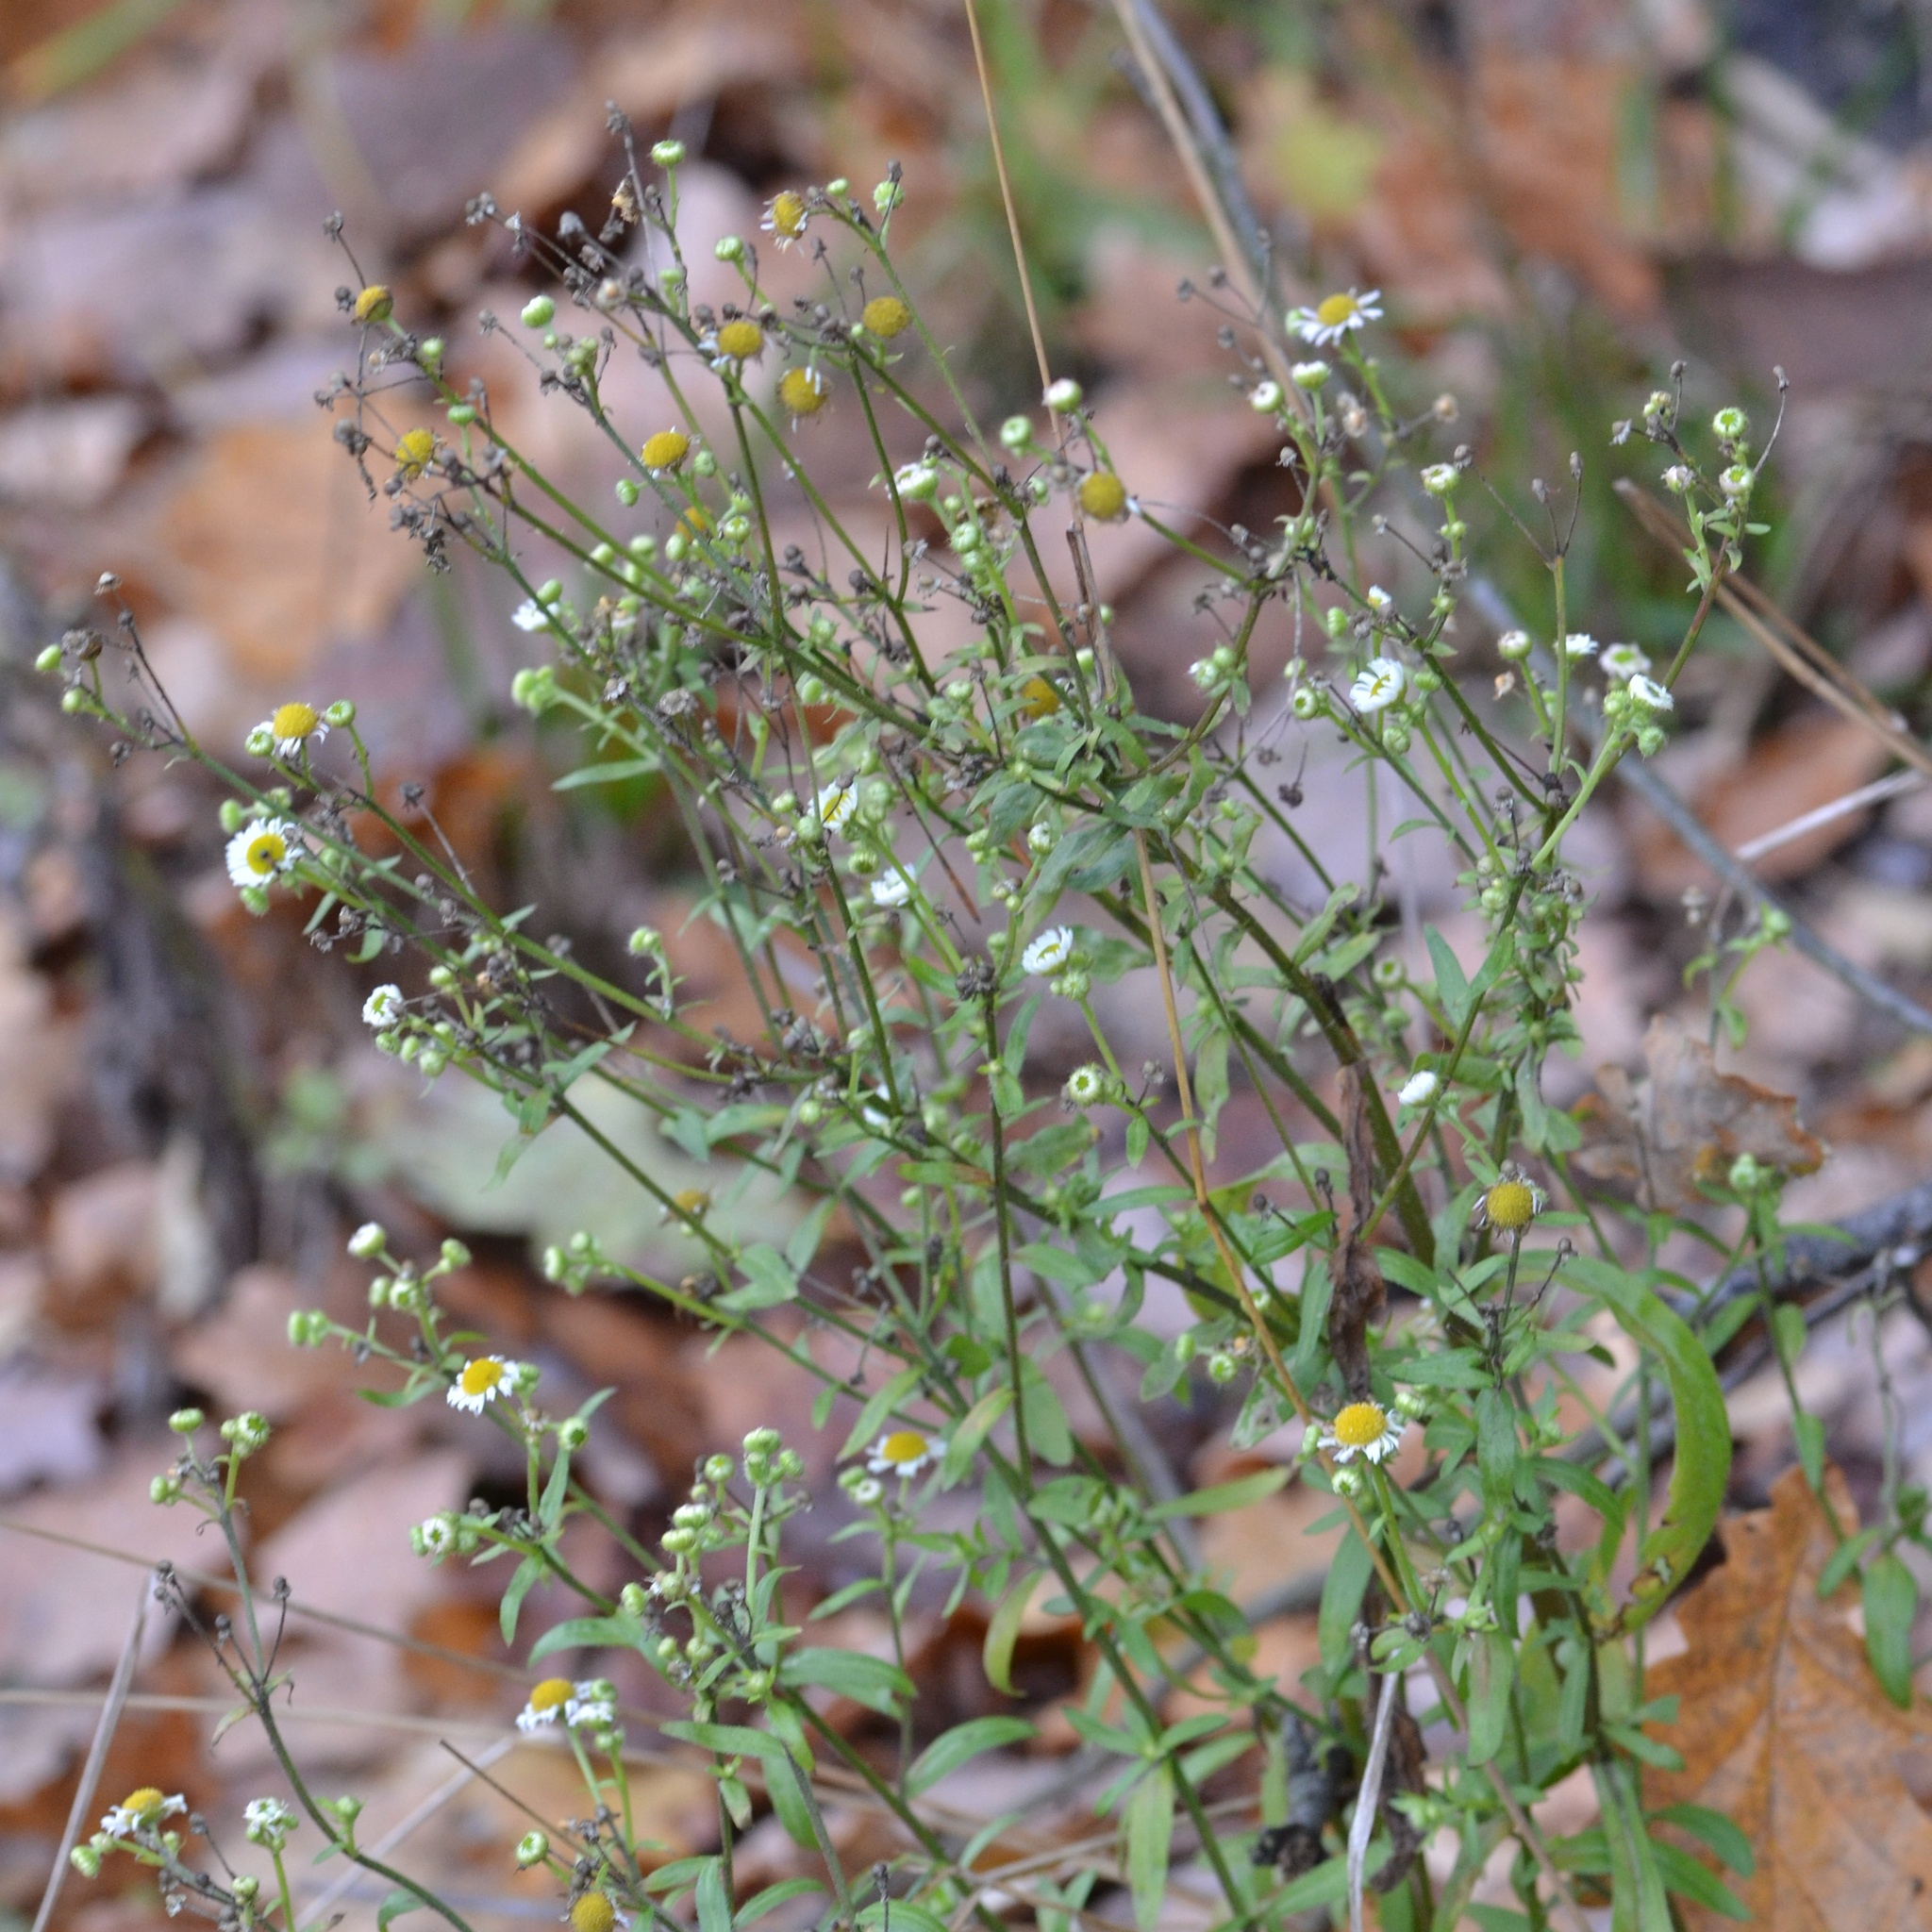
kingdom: Plantae
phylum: Tracheophyta
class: Magnoliopsida
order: Asterales
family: Asteraceae
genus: Erigeron
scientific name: Erigeron annuus
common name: Tall fleabane
